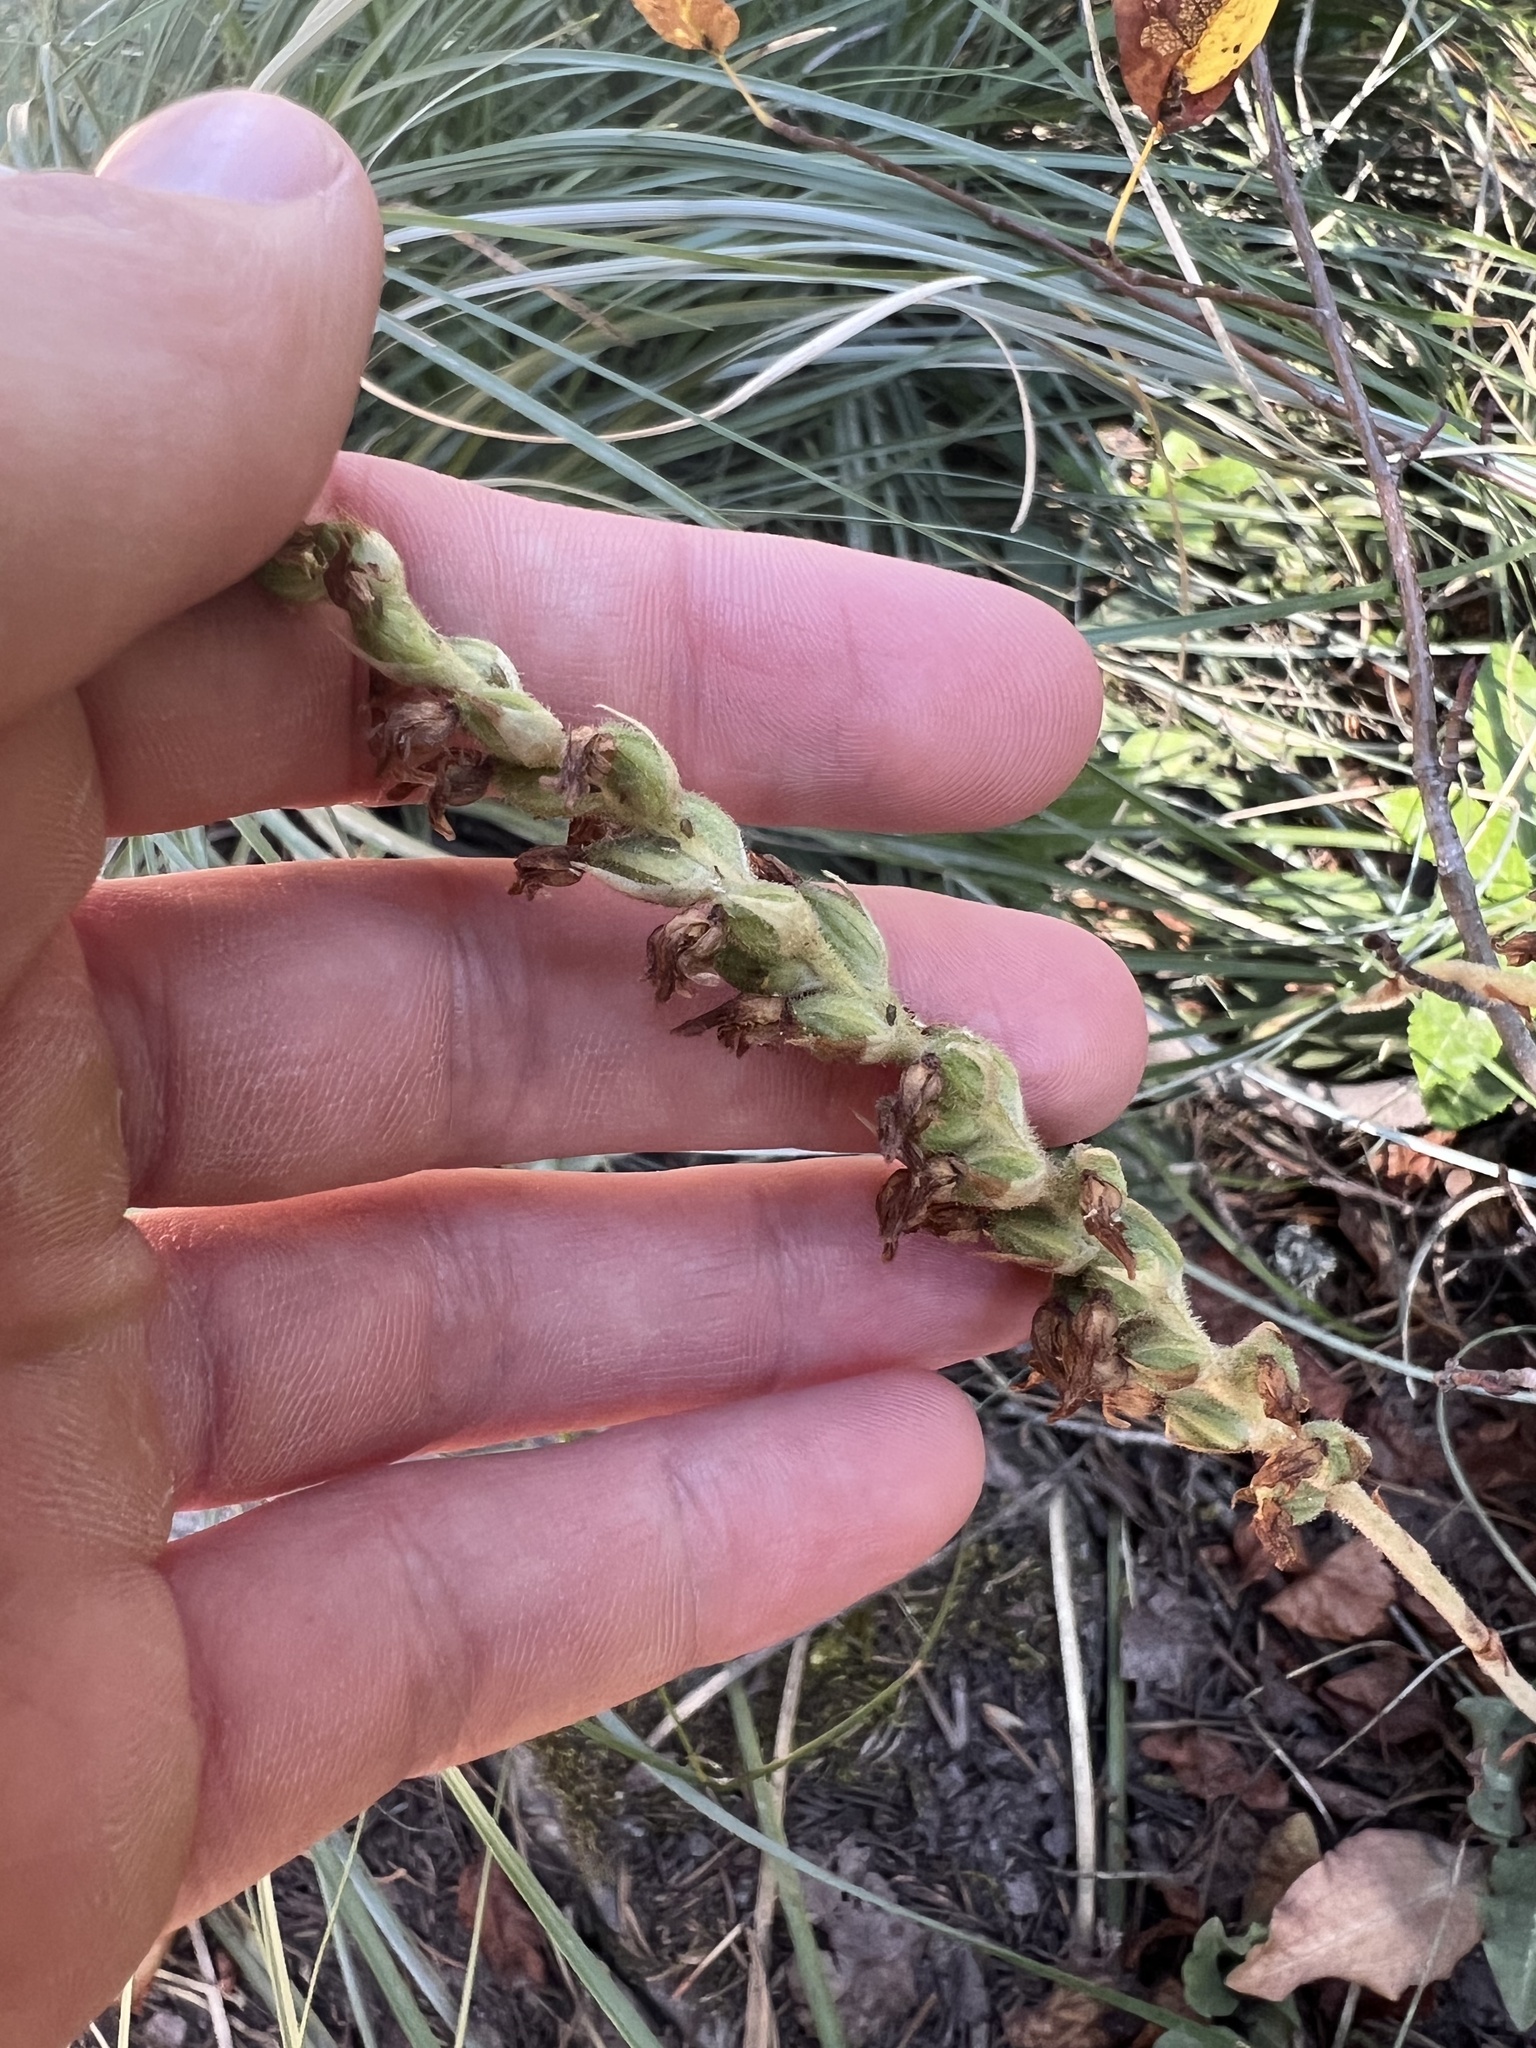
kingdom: Plantae
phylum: Tracheophyta
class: Liliopsida
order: Asparagales
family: Orchidaceae
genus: Goodyera
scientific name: Goodyera oblongifolia
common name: Giant rattlesnake-plantain
